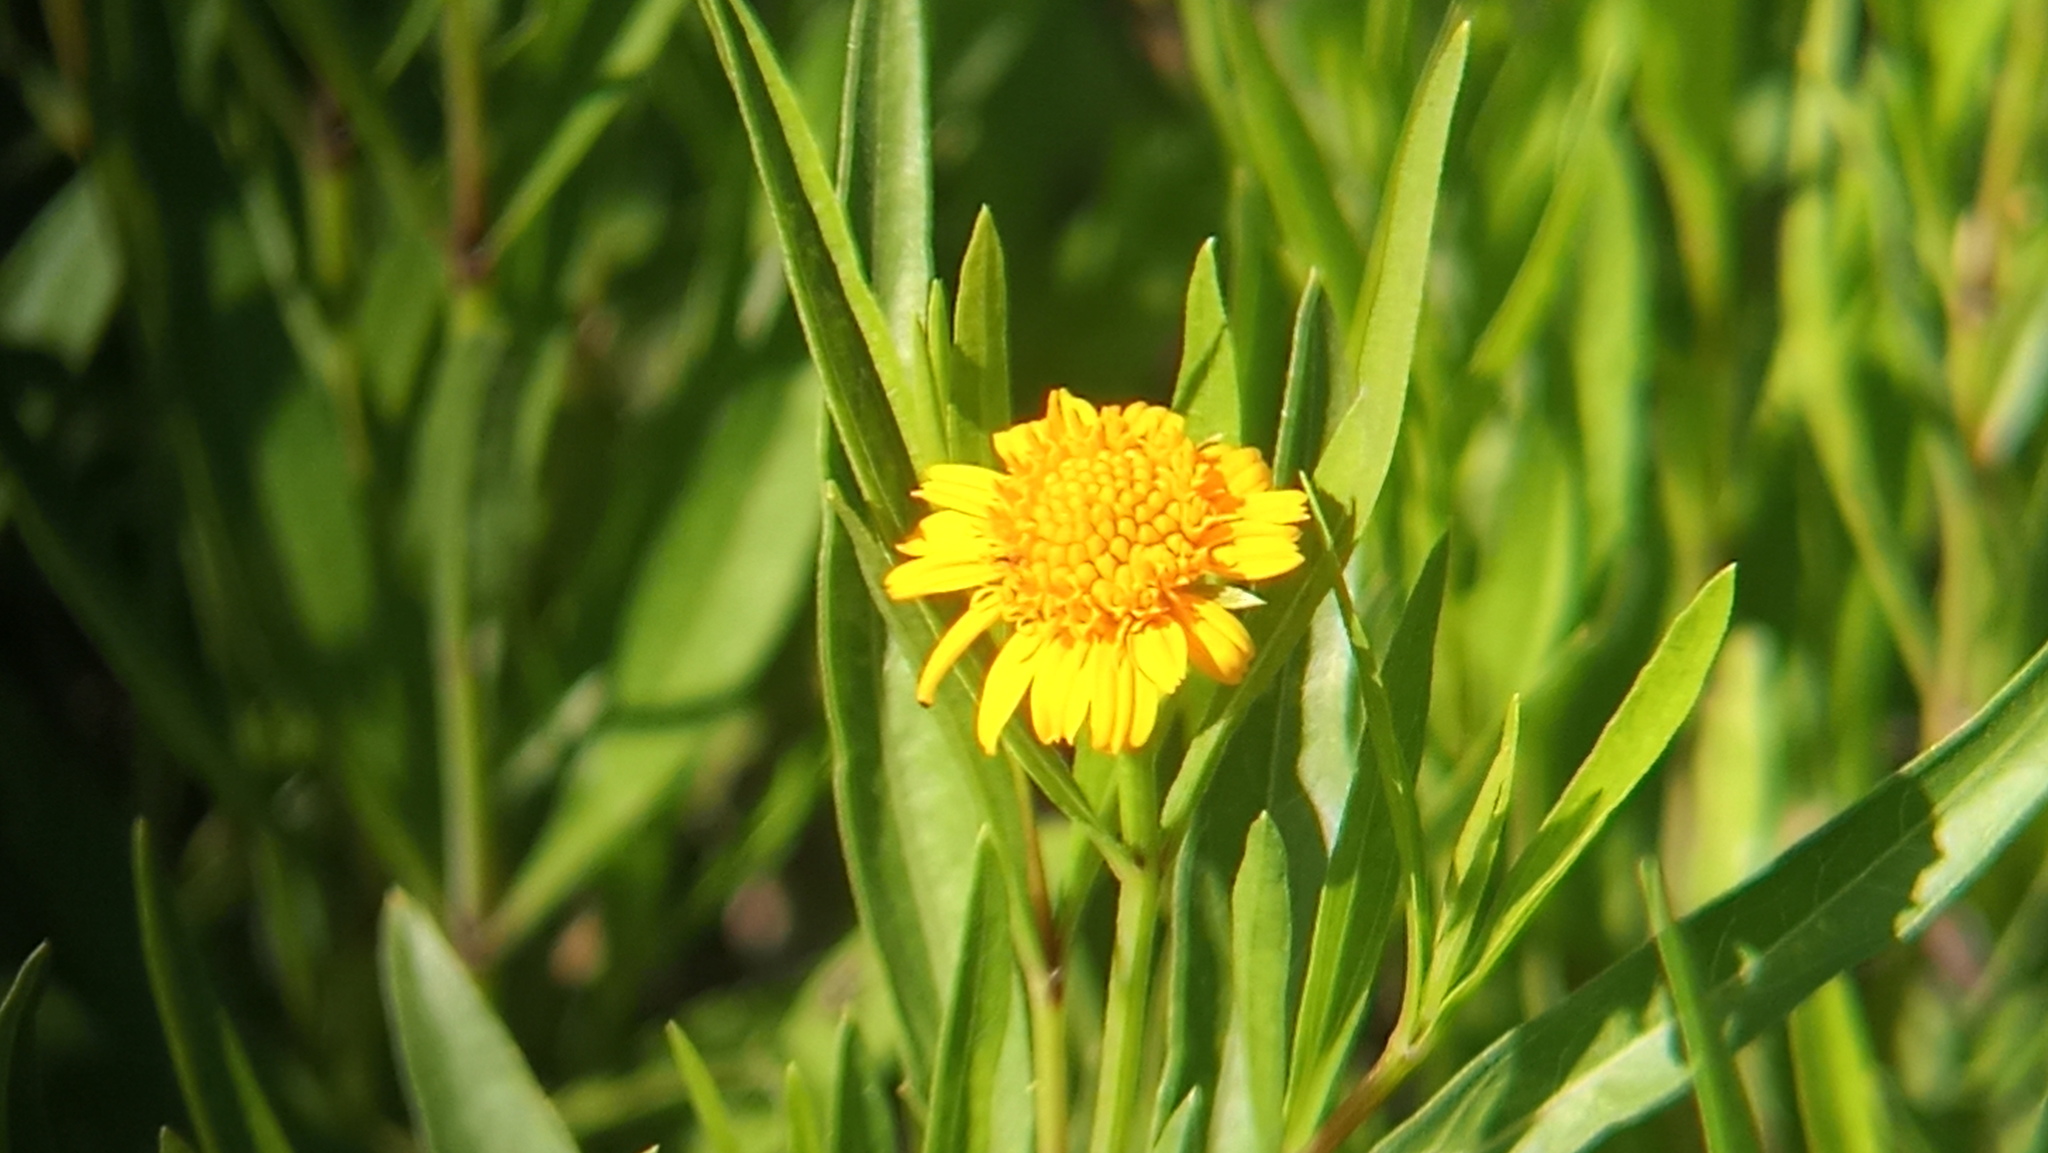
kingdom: Plantae
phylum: Tracheophyta
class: Magnoliopsida
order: Asterales
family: Asteraceae
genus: Pascalia
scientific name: Pascalia glauca
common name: Beach creeping oxeye
